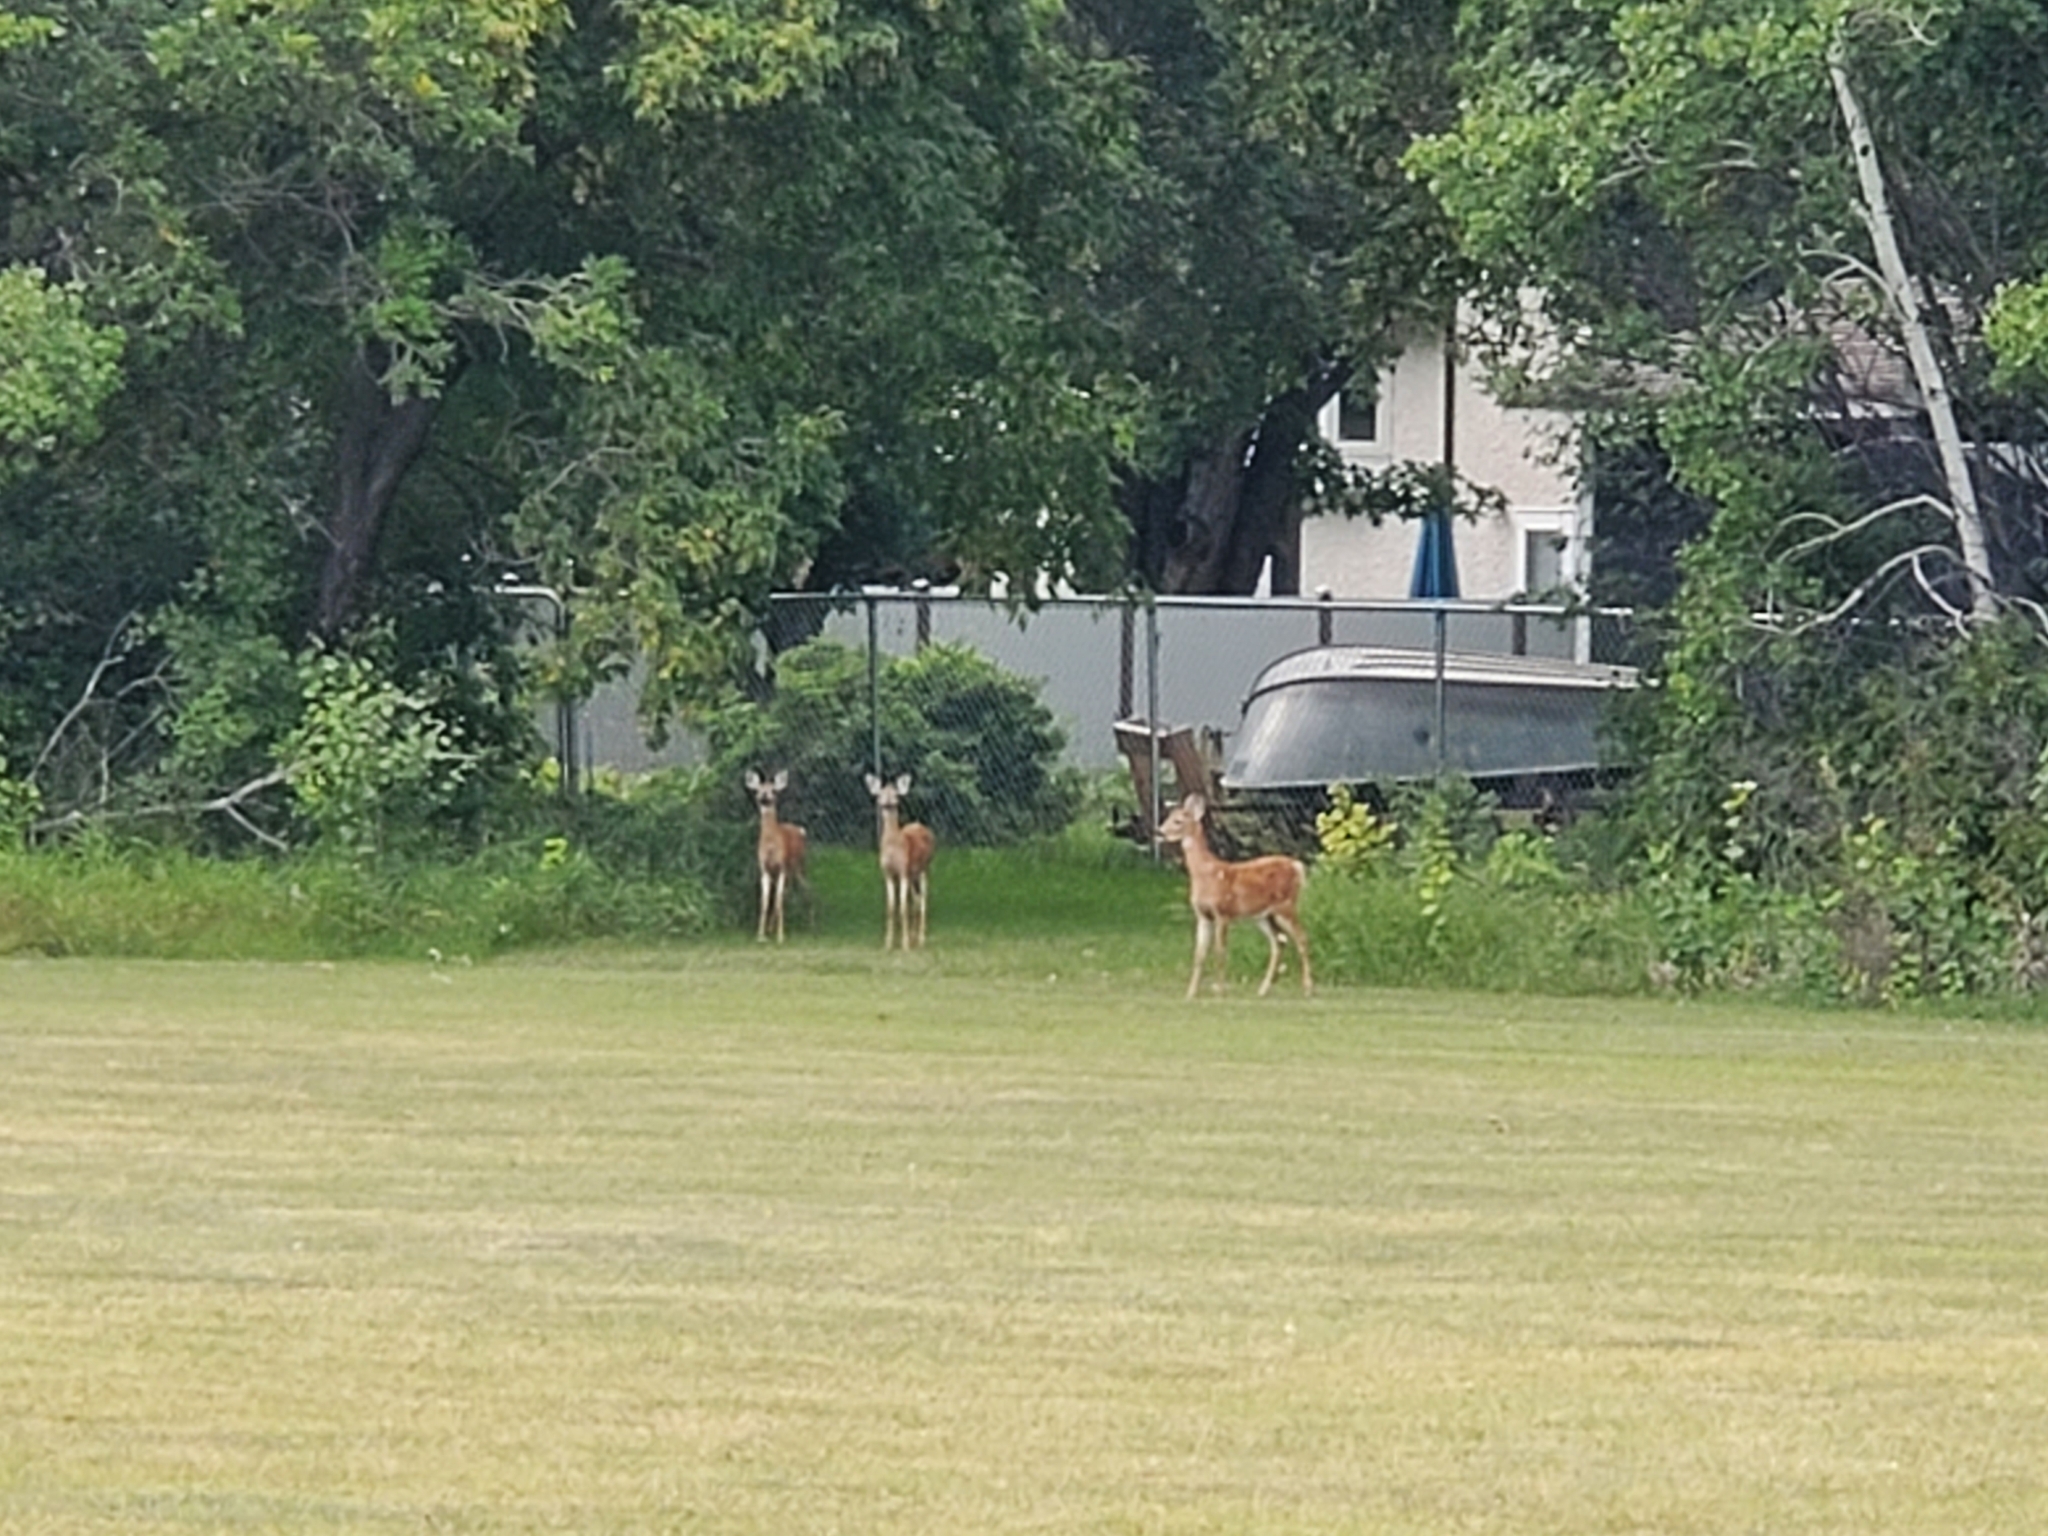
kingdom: Animalia
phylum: Chordata
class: Mammalia
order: Artiodactyla
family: Cervidae
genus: Odocoileus
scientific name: Odocoileus virginianus
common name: White-tailed deer
